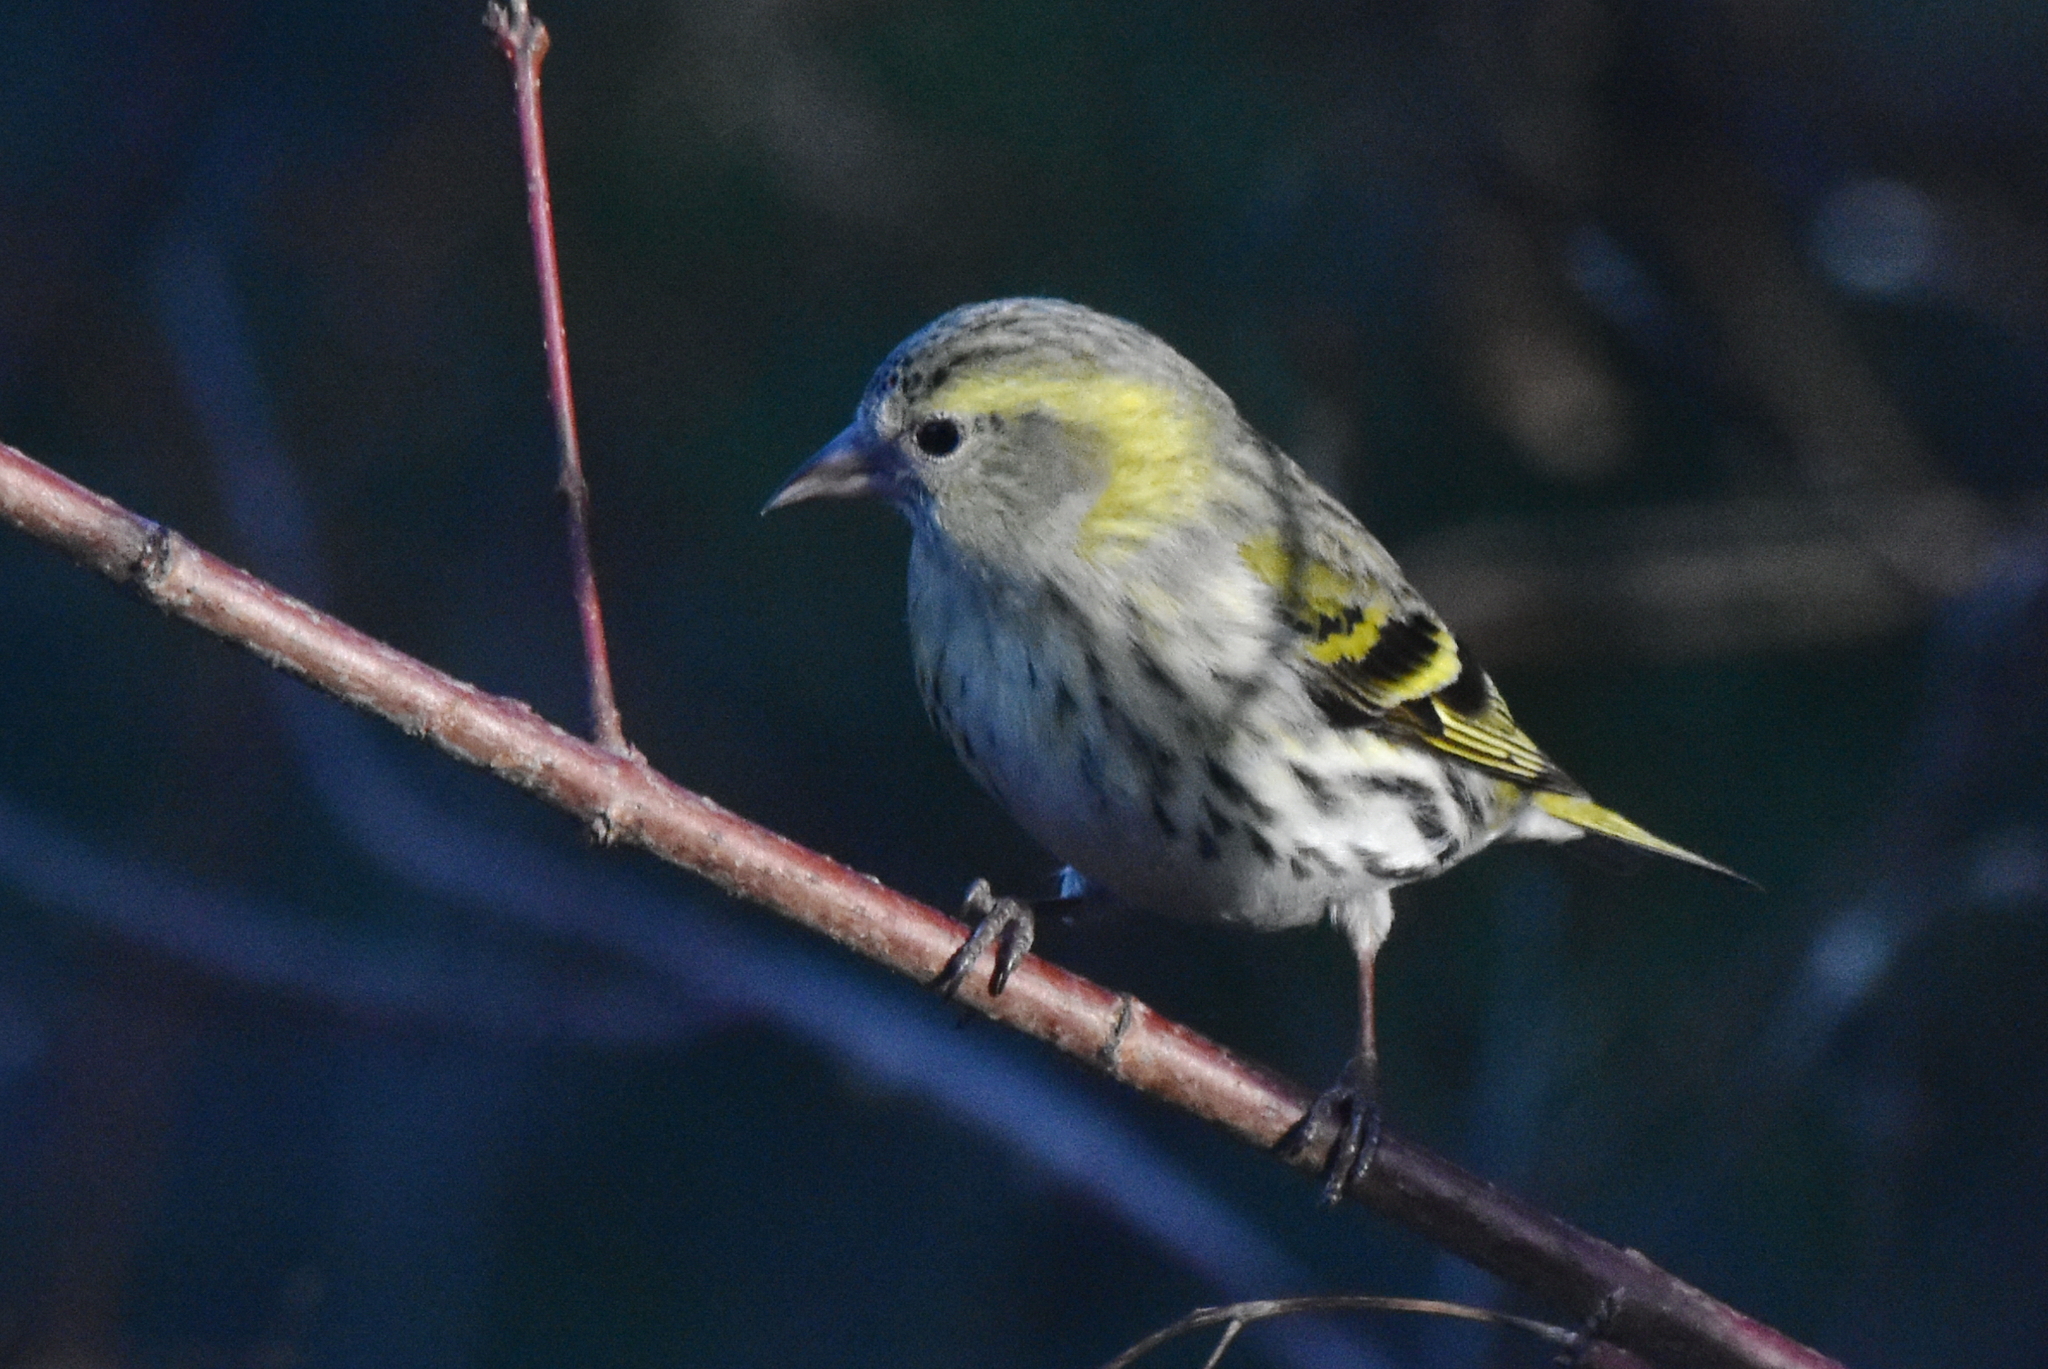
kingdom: Animalia
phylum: Chordata
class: Aves
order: Passeriformes
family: Fringillidae
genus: Spinus
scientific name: Spinus spinus
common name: Eurasian siskin
